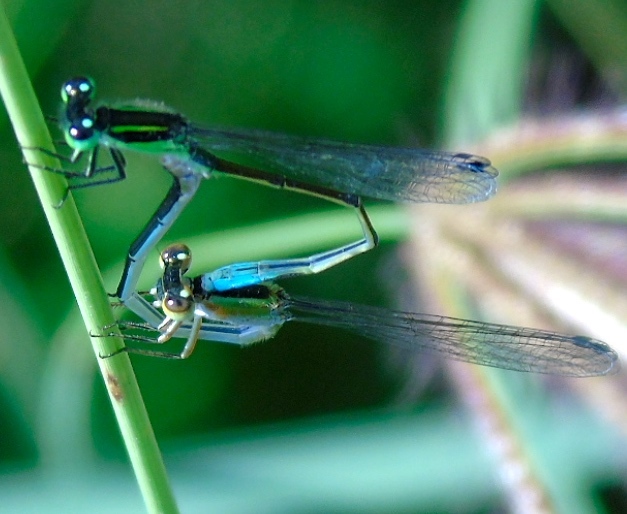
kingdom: Animalia
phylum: Arthropoda
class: Insecta
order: Odonata
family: Coenagrionidae
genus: Ischnura
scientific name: Ischnura ramburii
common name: Rambur's forktail
